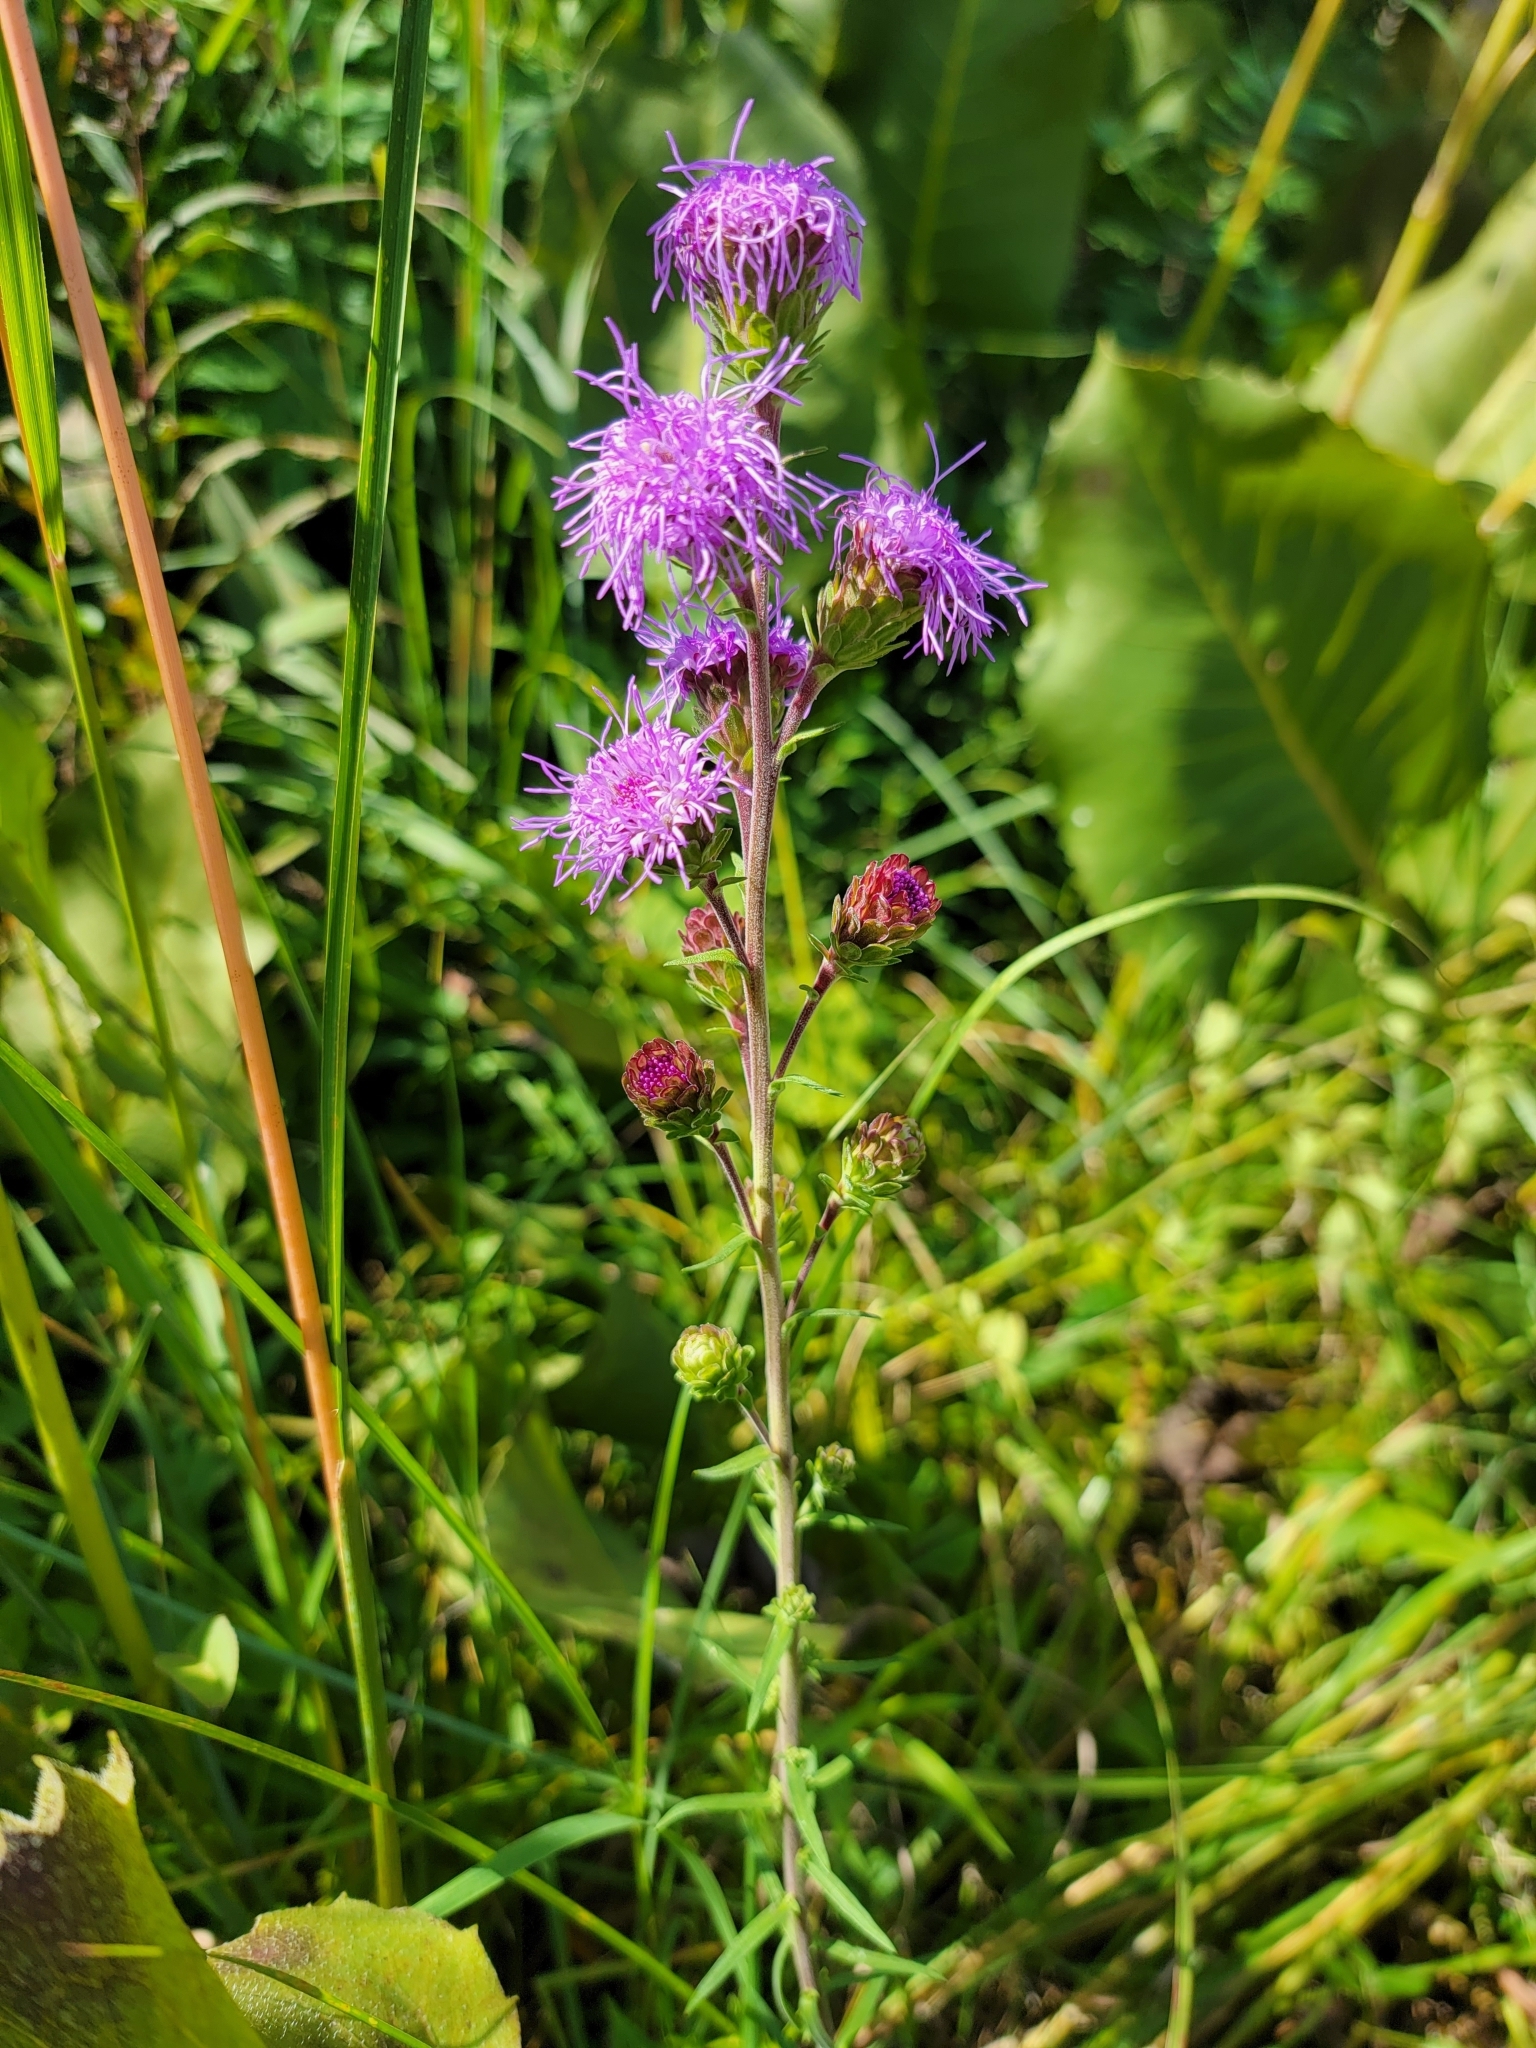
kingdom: Plantae
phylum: Tracheophyta
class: Magnoliopsida
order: Asterales
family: Asteraceae
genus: Liatris
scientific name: Liatris scariosa
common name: Northern gayfeather
